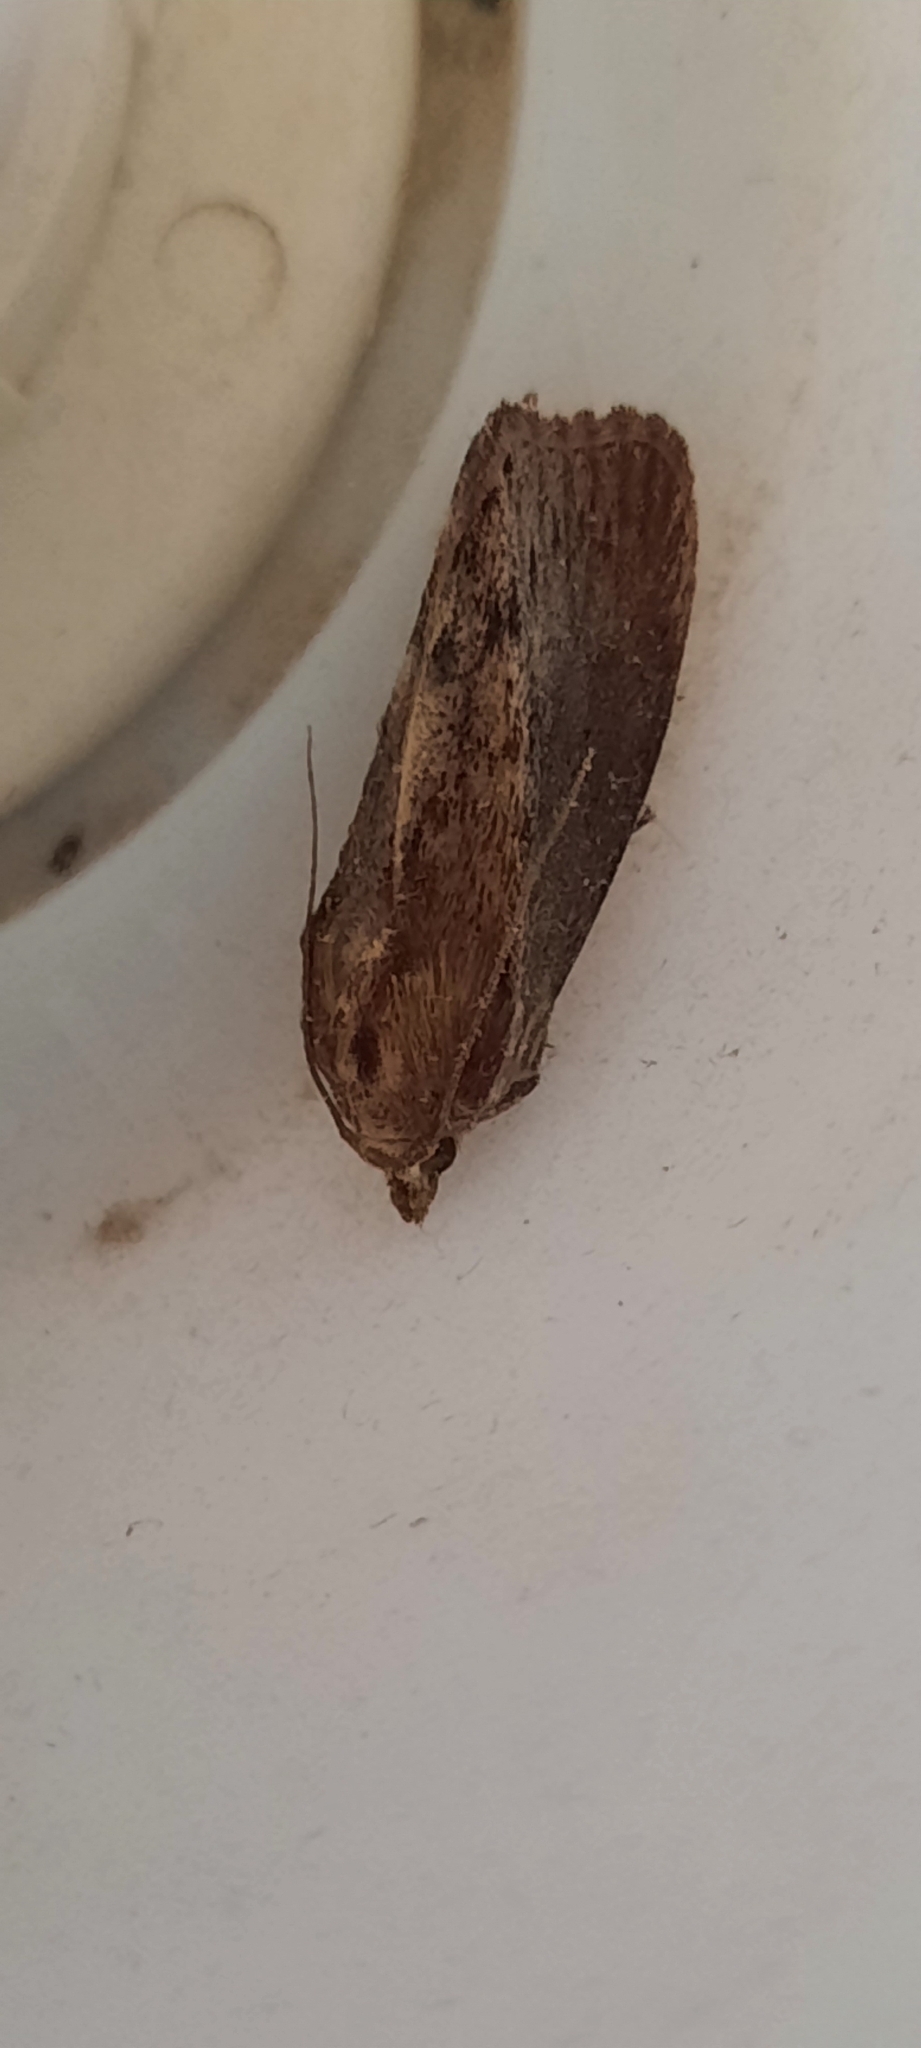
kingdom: Animalia
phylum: Arthropoda
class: Insecta
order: Lepidoptera
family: Pyralidae
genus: Galleria
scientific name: Galleria mellonella
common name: Greater wax moth
